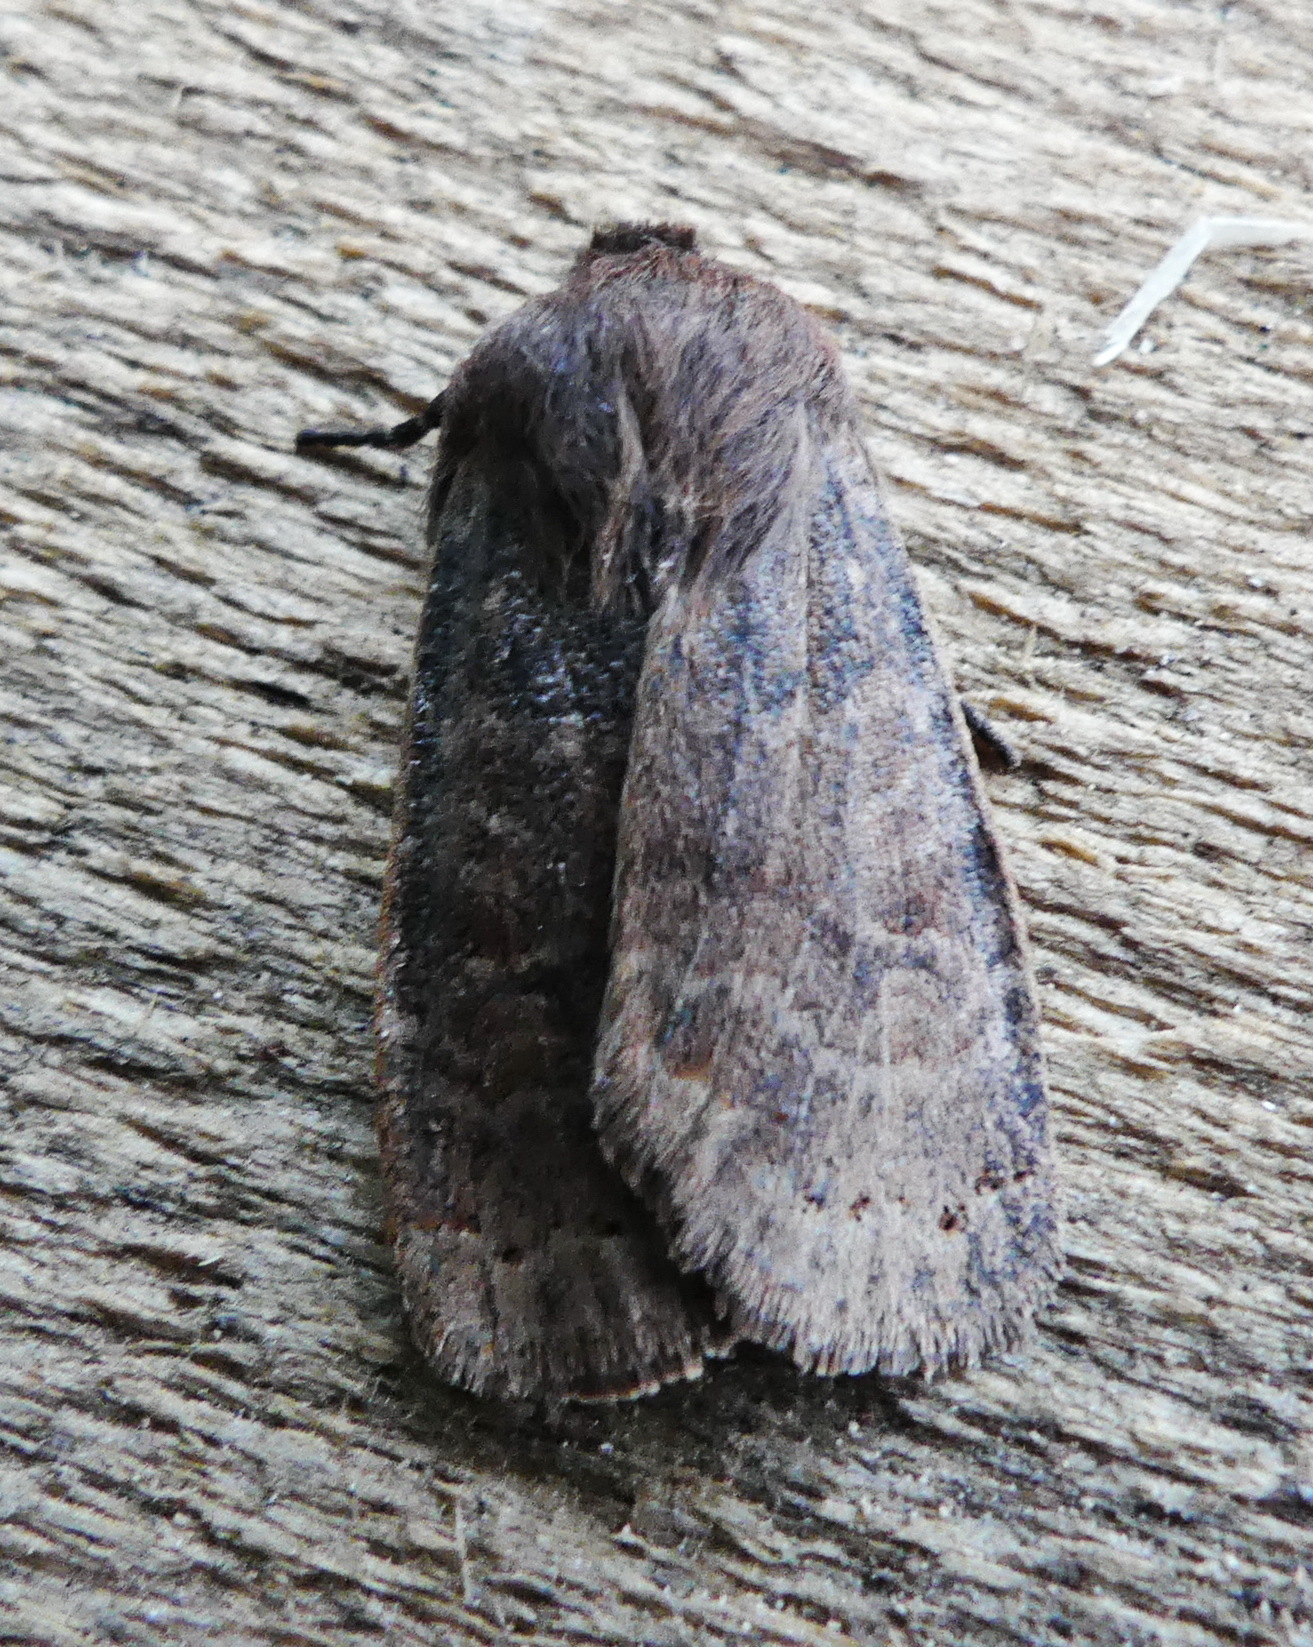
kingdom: Animalia
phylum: Arthropoda
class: Insecta
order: Lepidoptera
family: Noctuidae
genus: Homoglaea
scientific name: Homoglaea hircina
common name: Goat sallow
